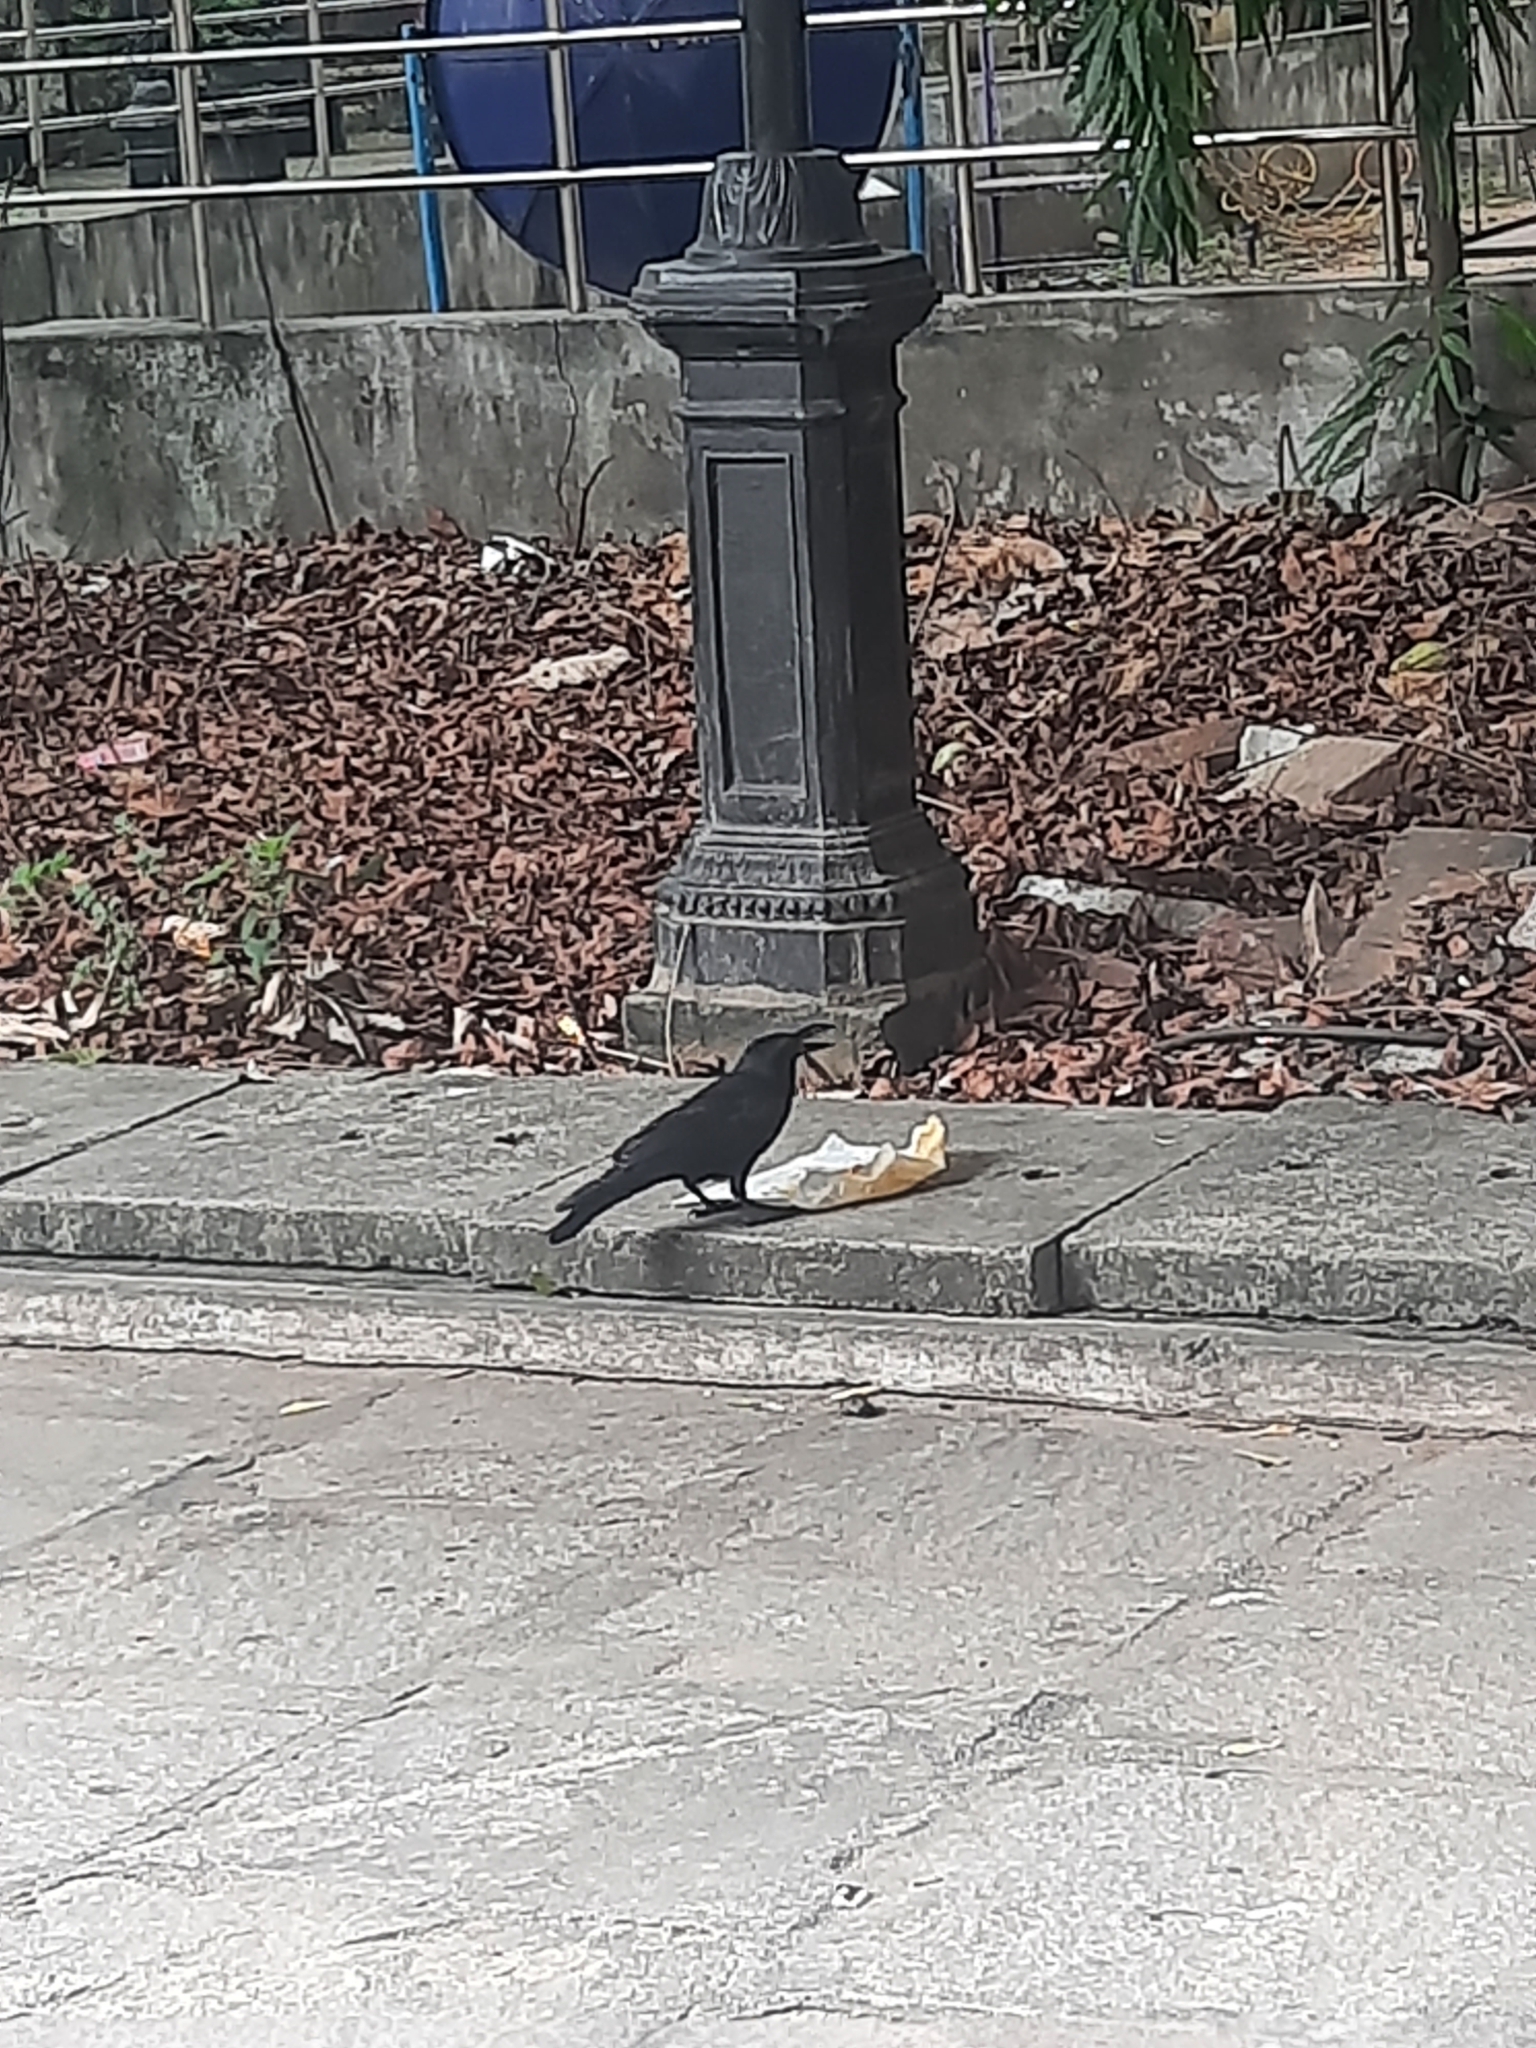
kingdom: Animalia
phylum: Chordata
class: Aves
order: Passeriformes
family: Corvidae
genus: Corvus
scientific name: Corvus macrorhynchos
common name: Large-billed crow
